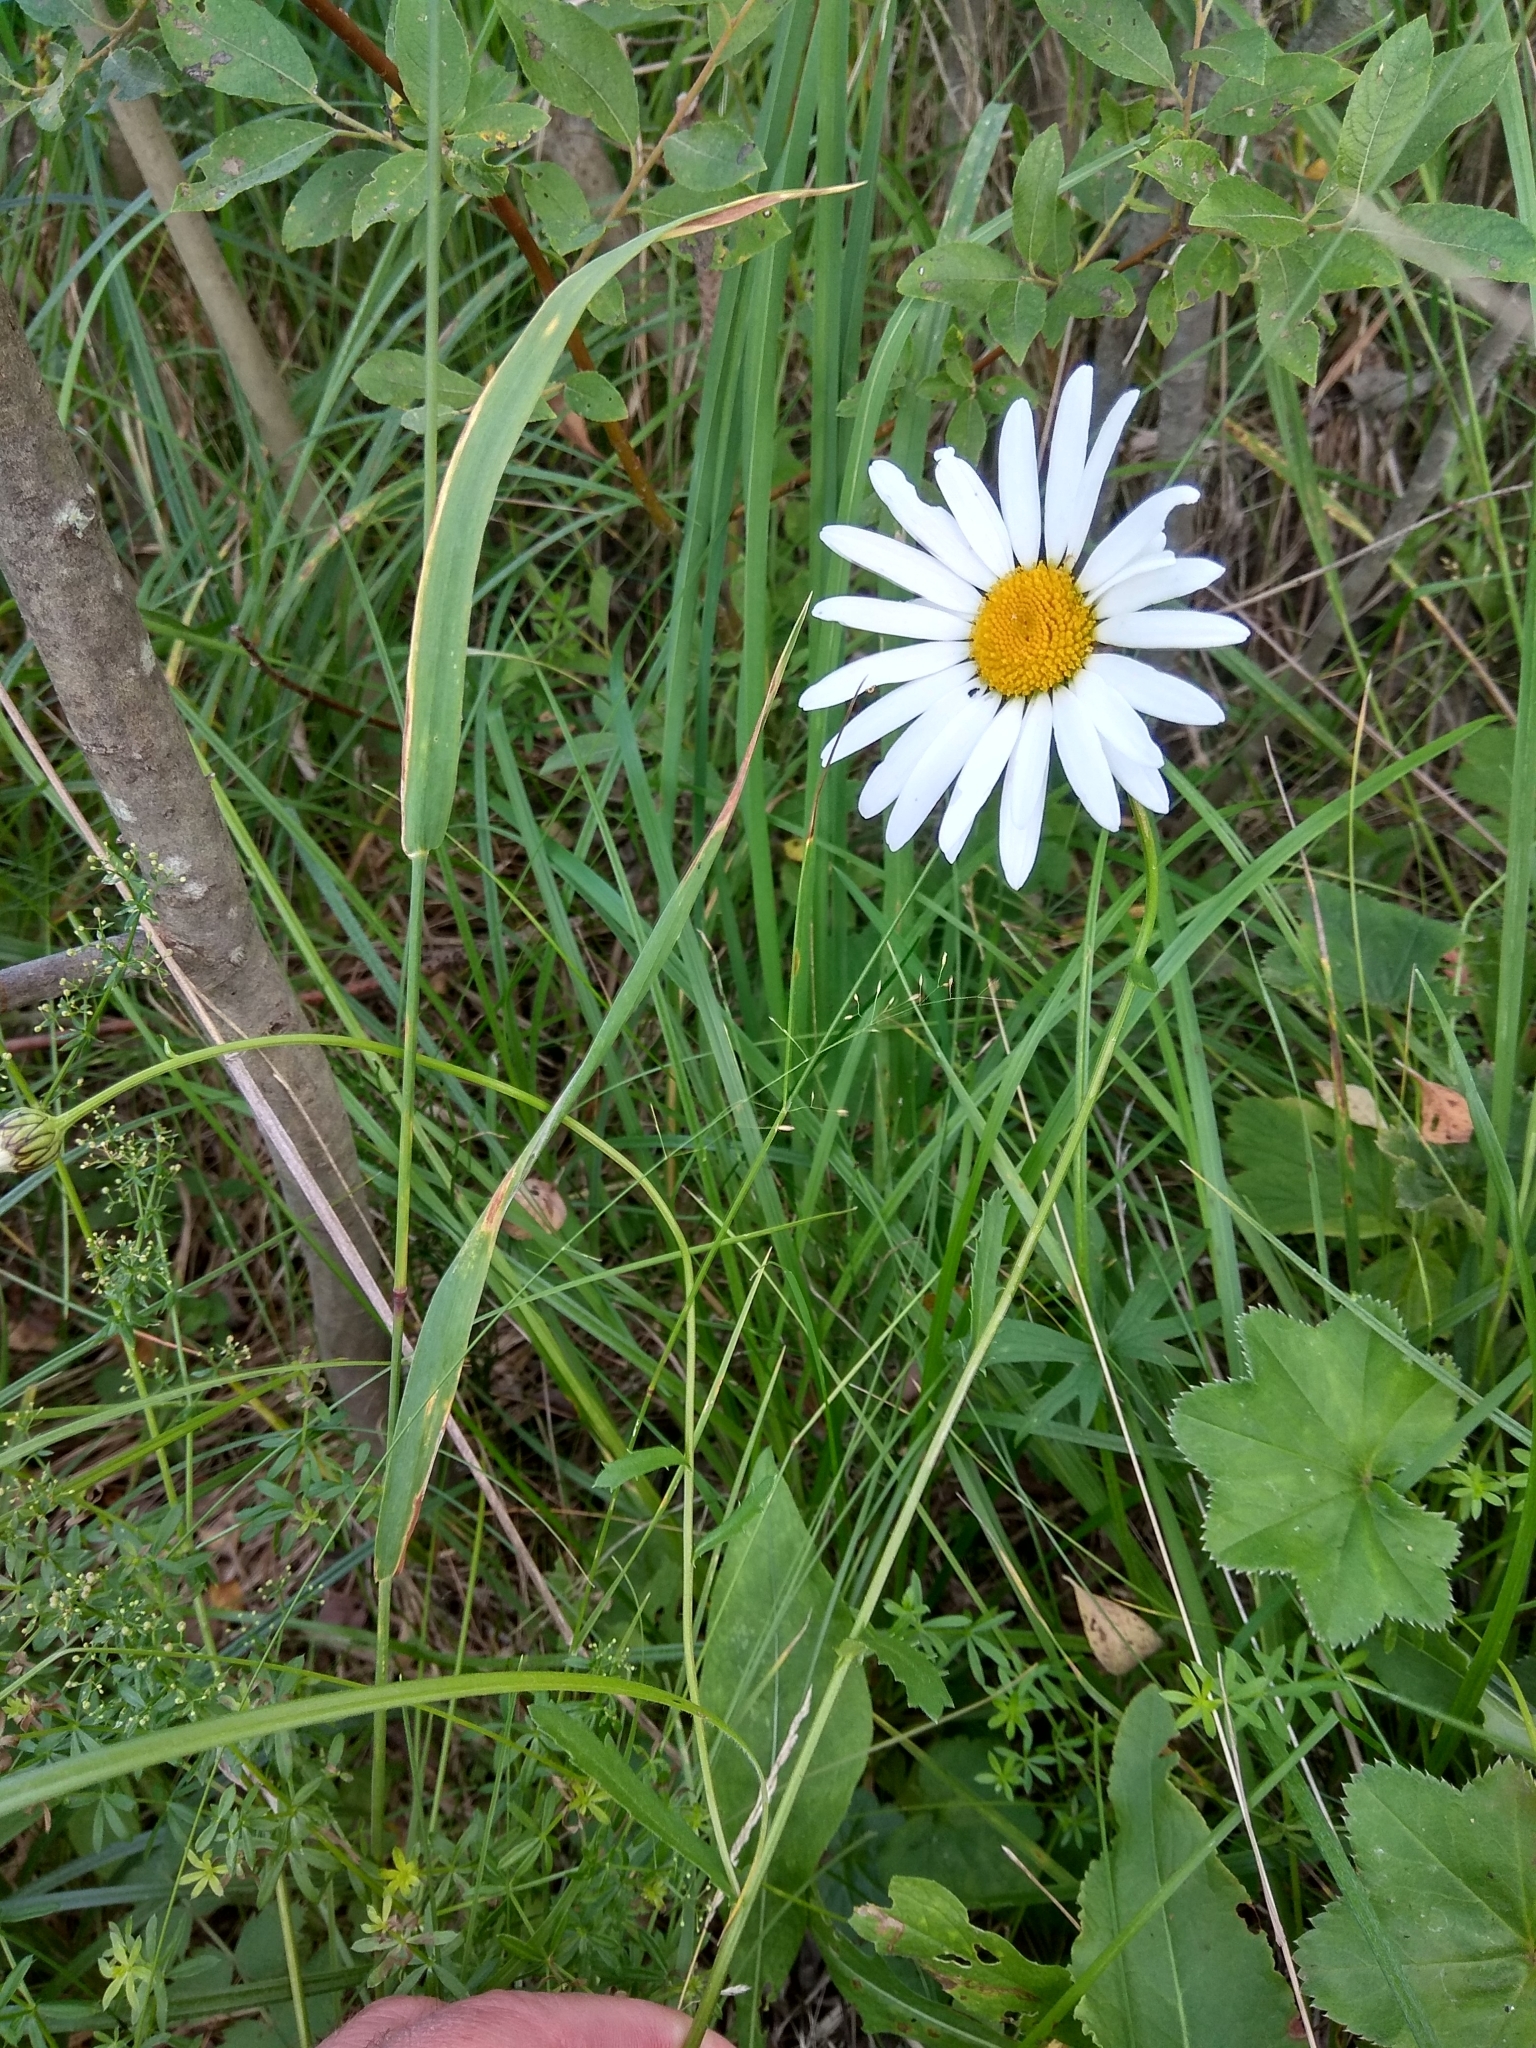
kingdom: Plantae
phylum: Tracheophyta
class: Magnoliopsida
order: Asterales
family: Asteraceae
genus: Leucanthemum
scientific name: Leucanthemum vulgare
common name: Oxeye daisy
